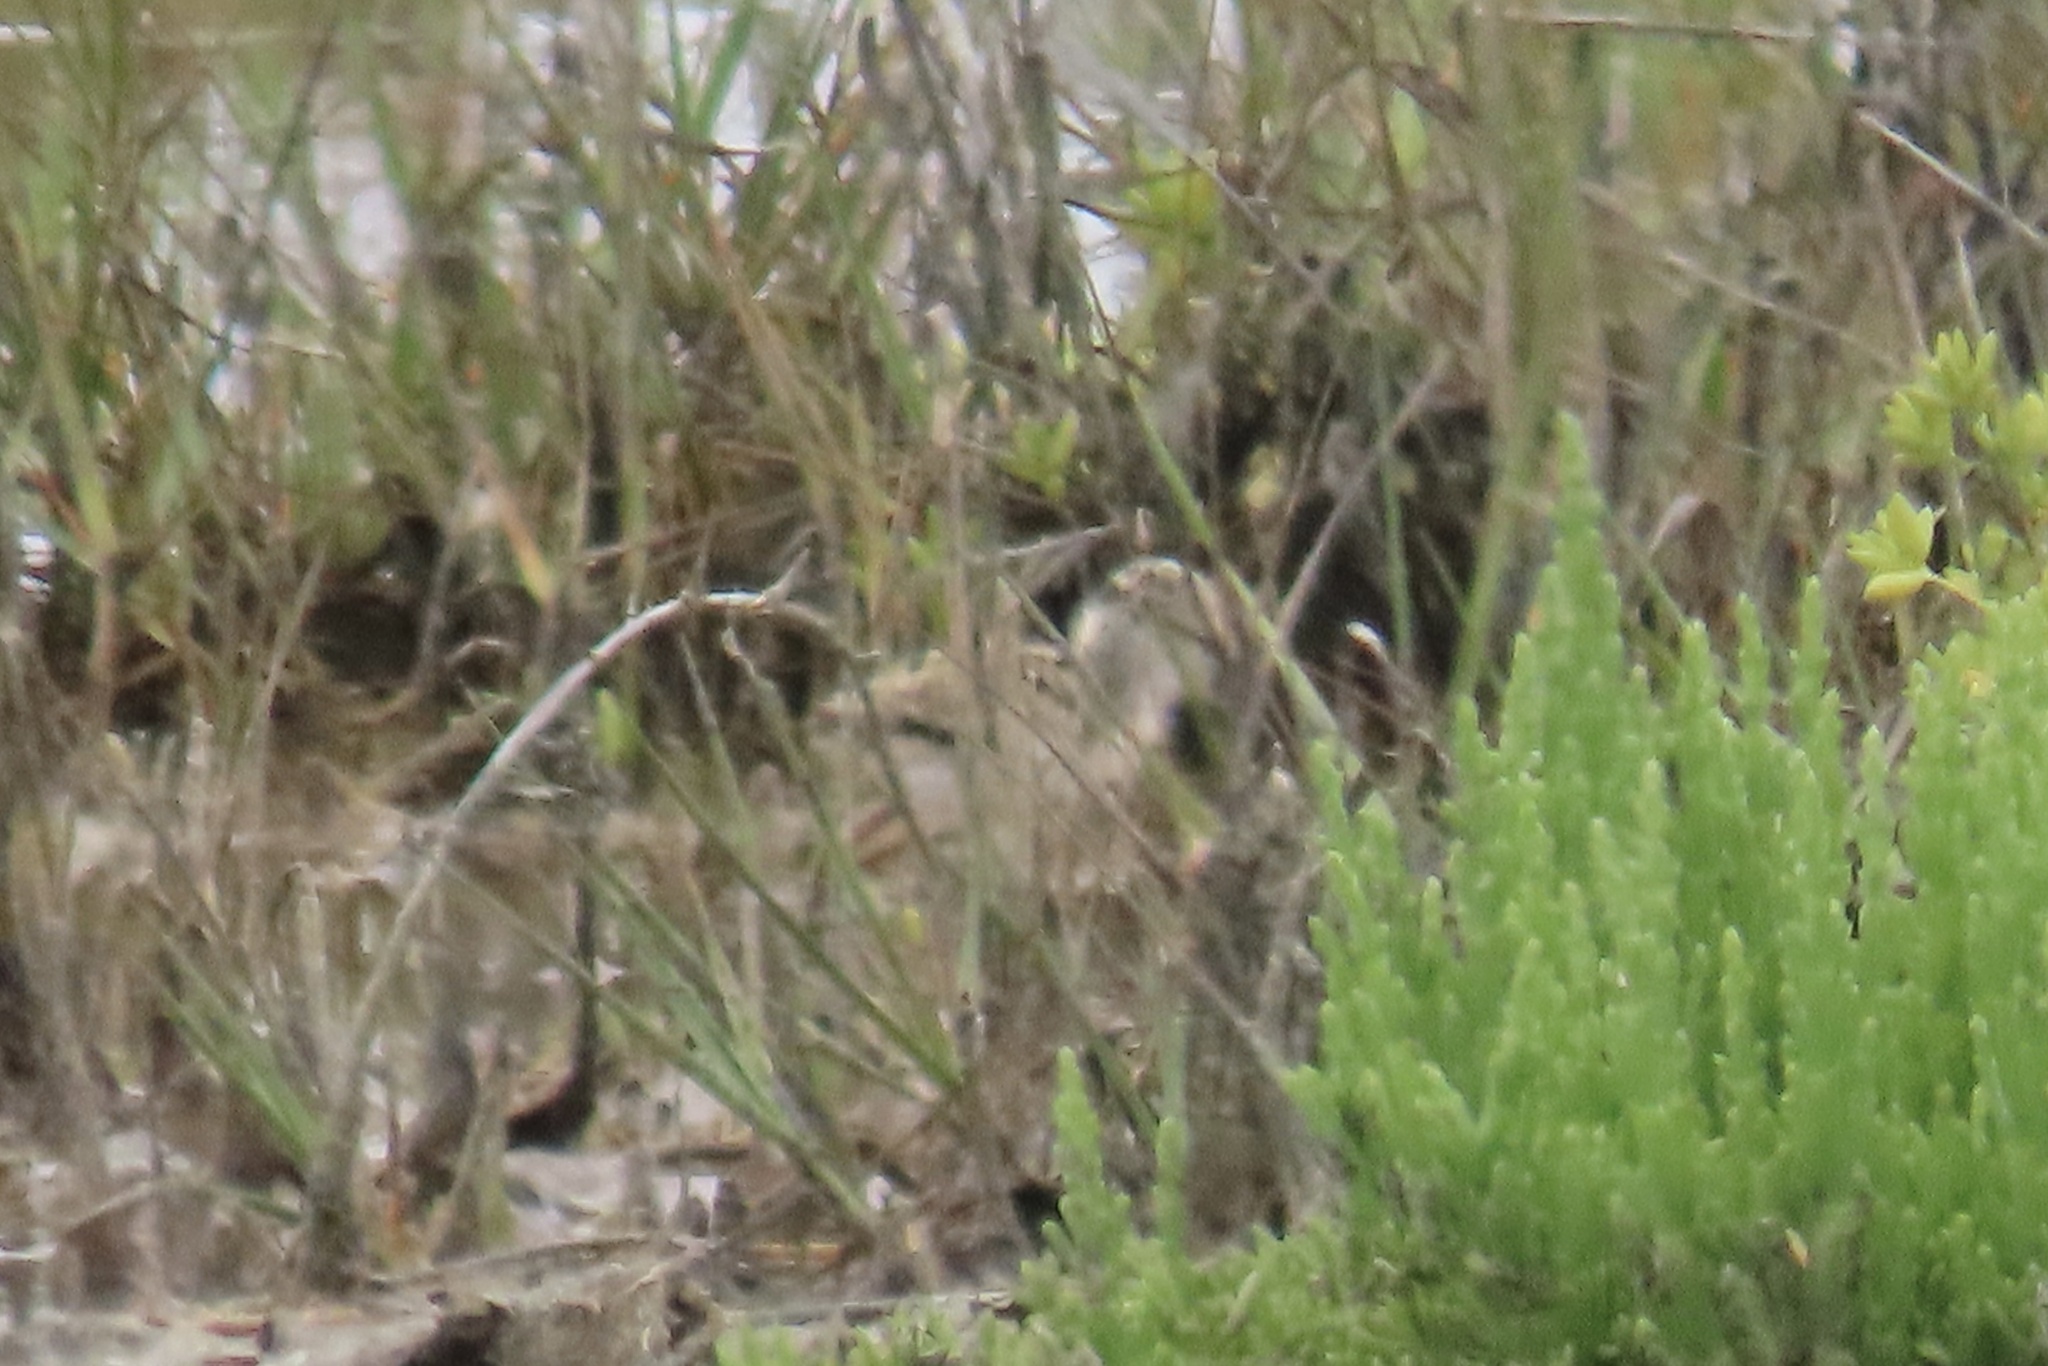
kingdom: Animalia
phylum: Chordata
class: Aves
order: Charadriiformes
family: Recurvirostridae
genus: Himantopus
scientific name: Himantopus mexicanus
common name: Black-necked stilt
